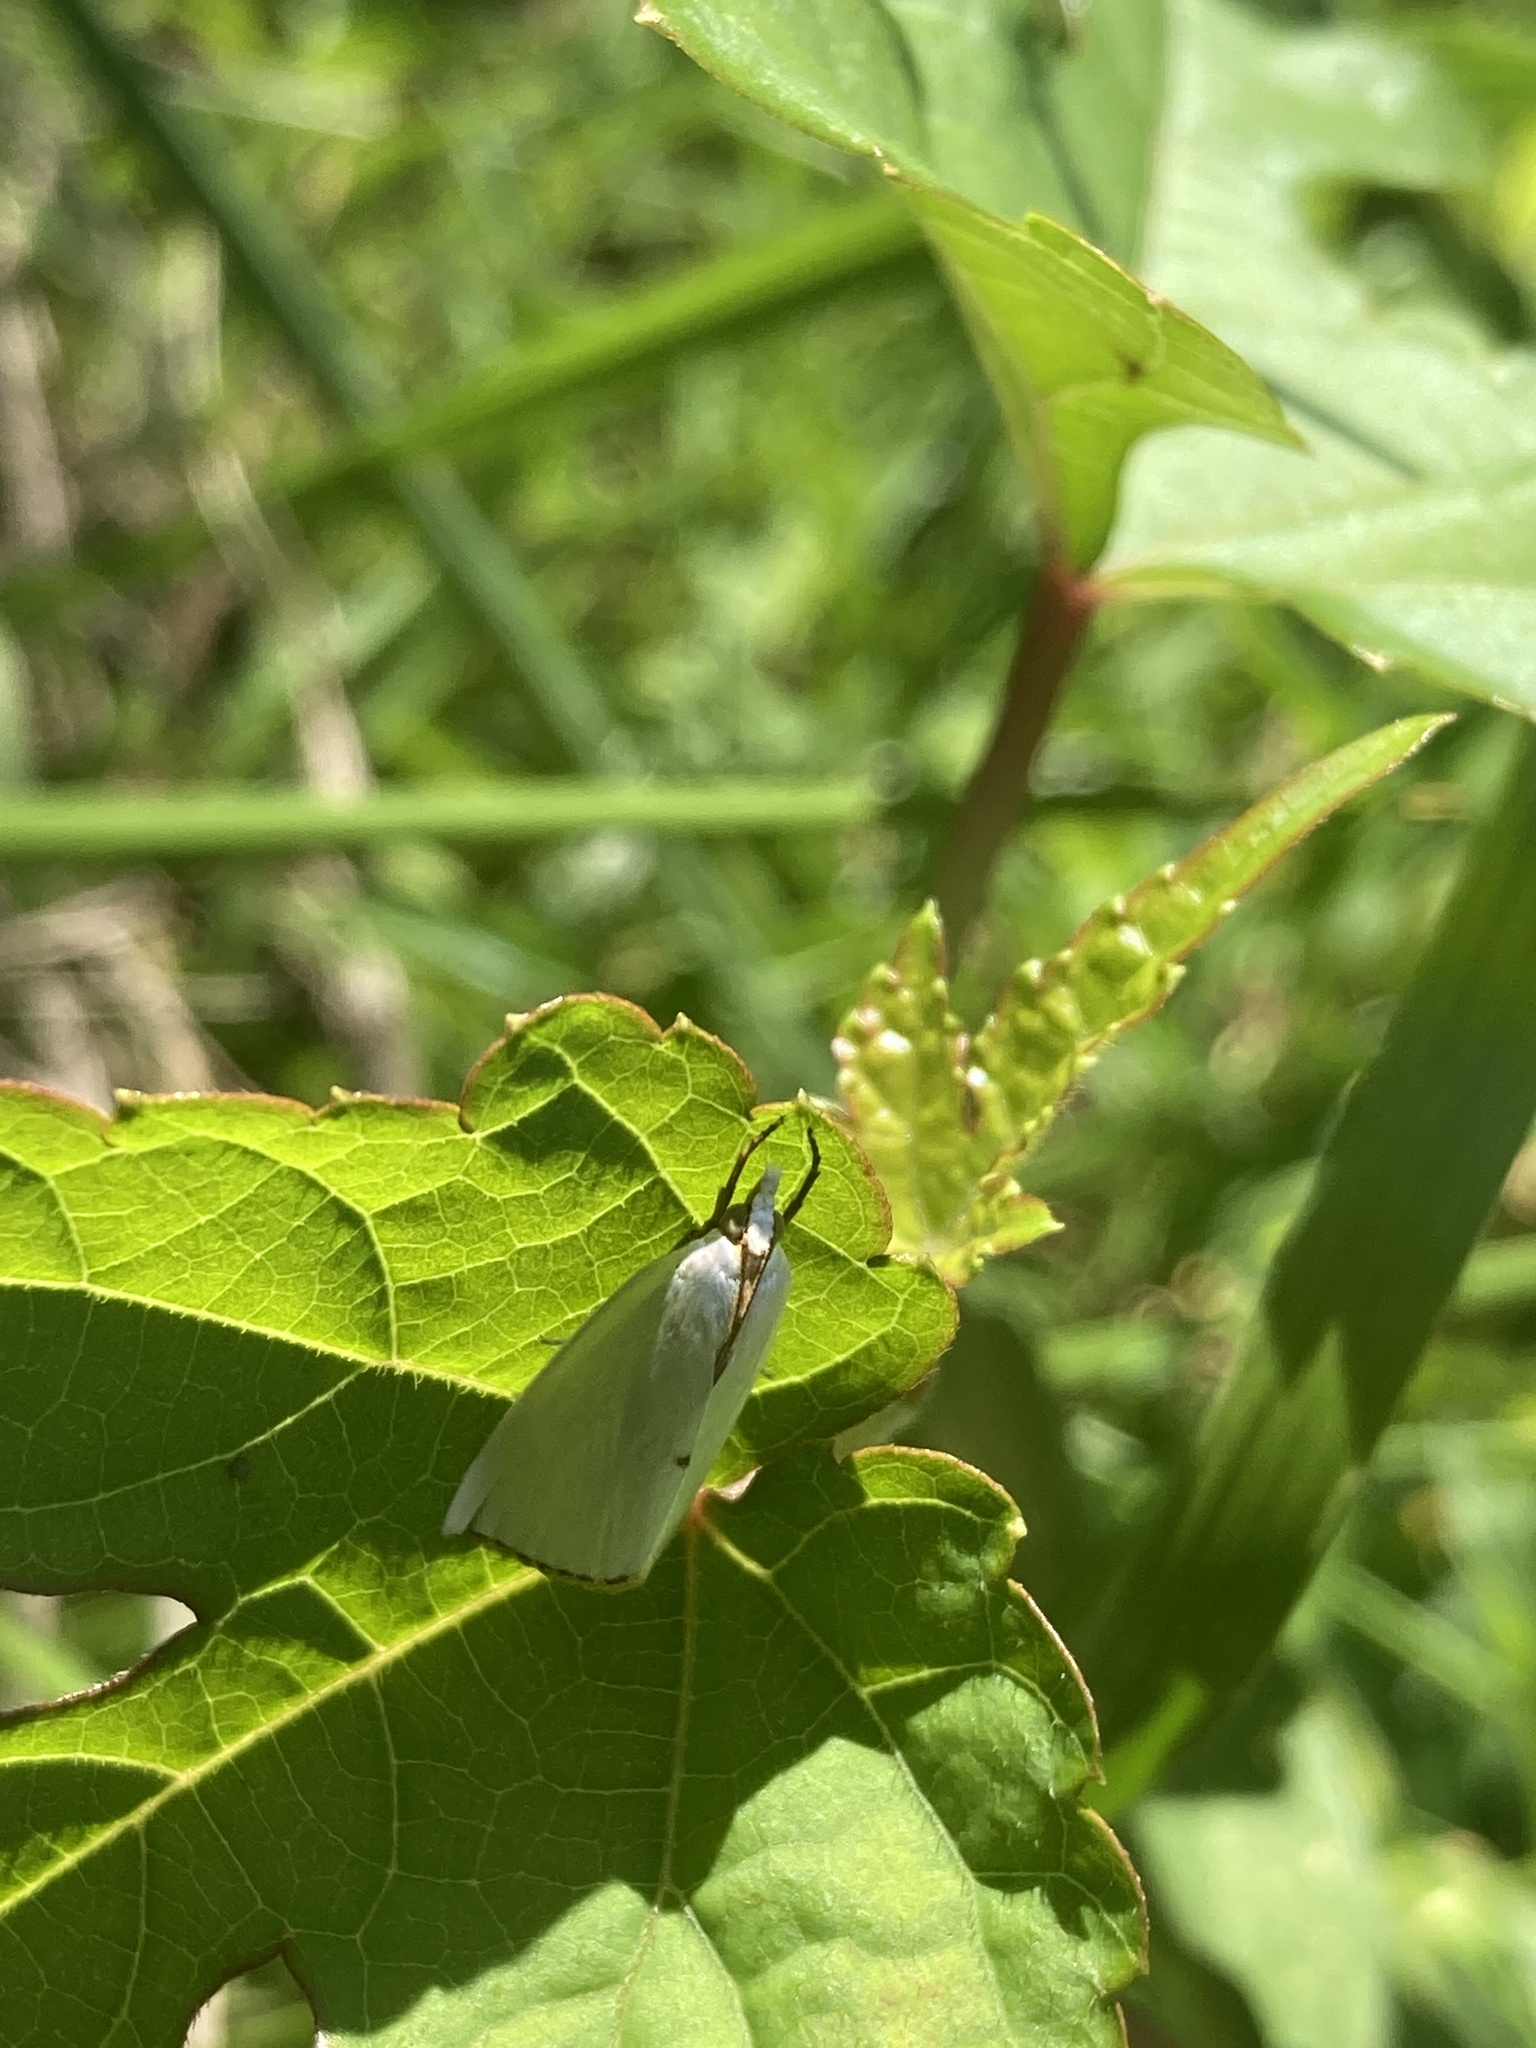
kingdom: Animalia
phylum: Arthropoda
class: Insecta
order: Lepidoptera
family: Crambidae
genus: Argyria
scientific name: Argyria nivalis
